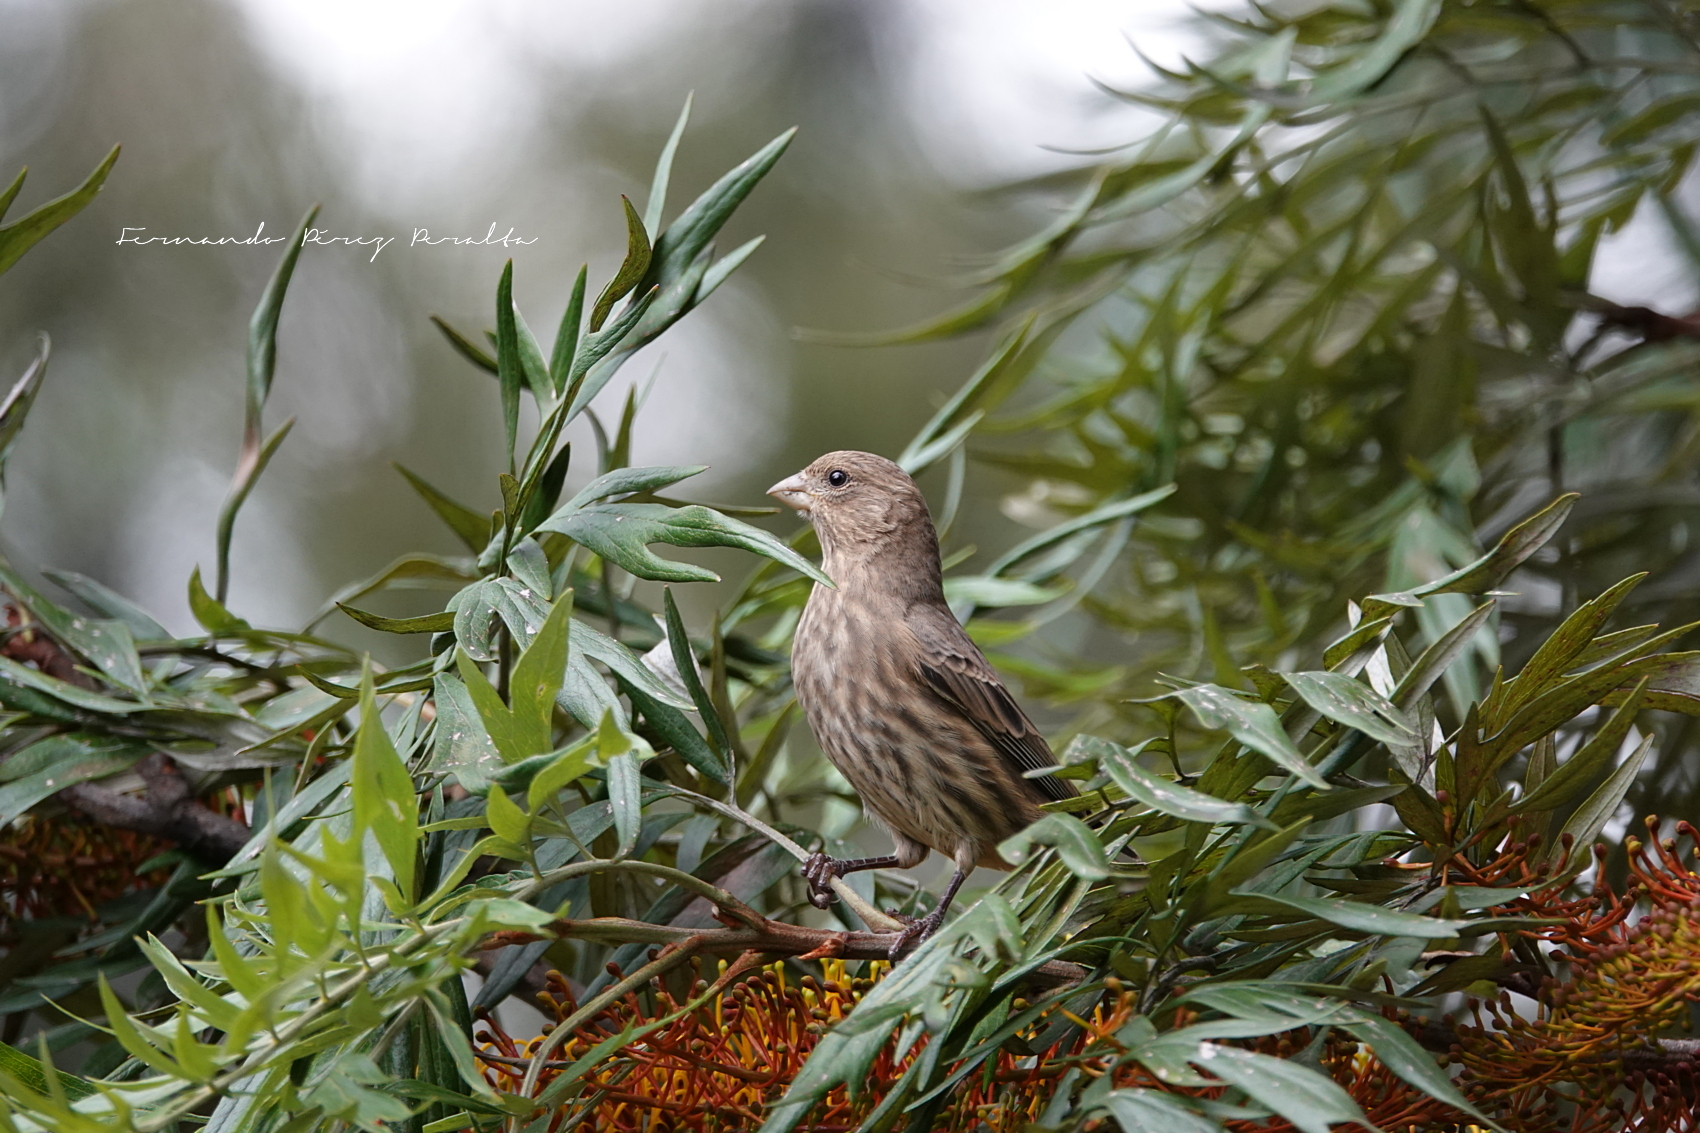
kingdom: Animalia
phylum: Chordata
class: Aves
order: Passeriformes
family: Fringillidae
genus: Haemorhous
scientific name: Haemorhous mexicanus
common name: House finch
